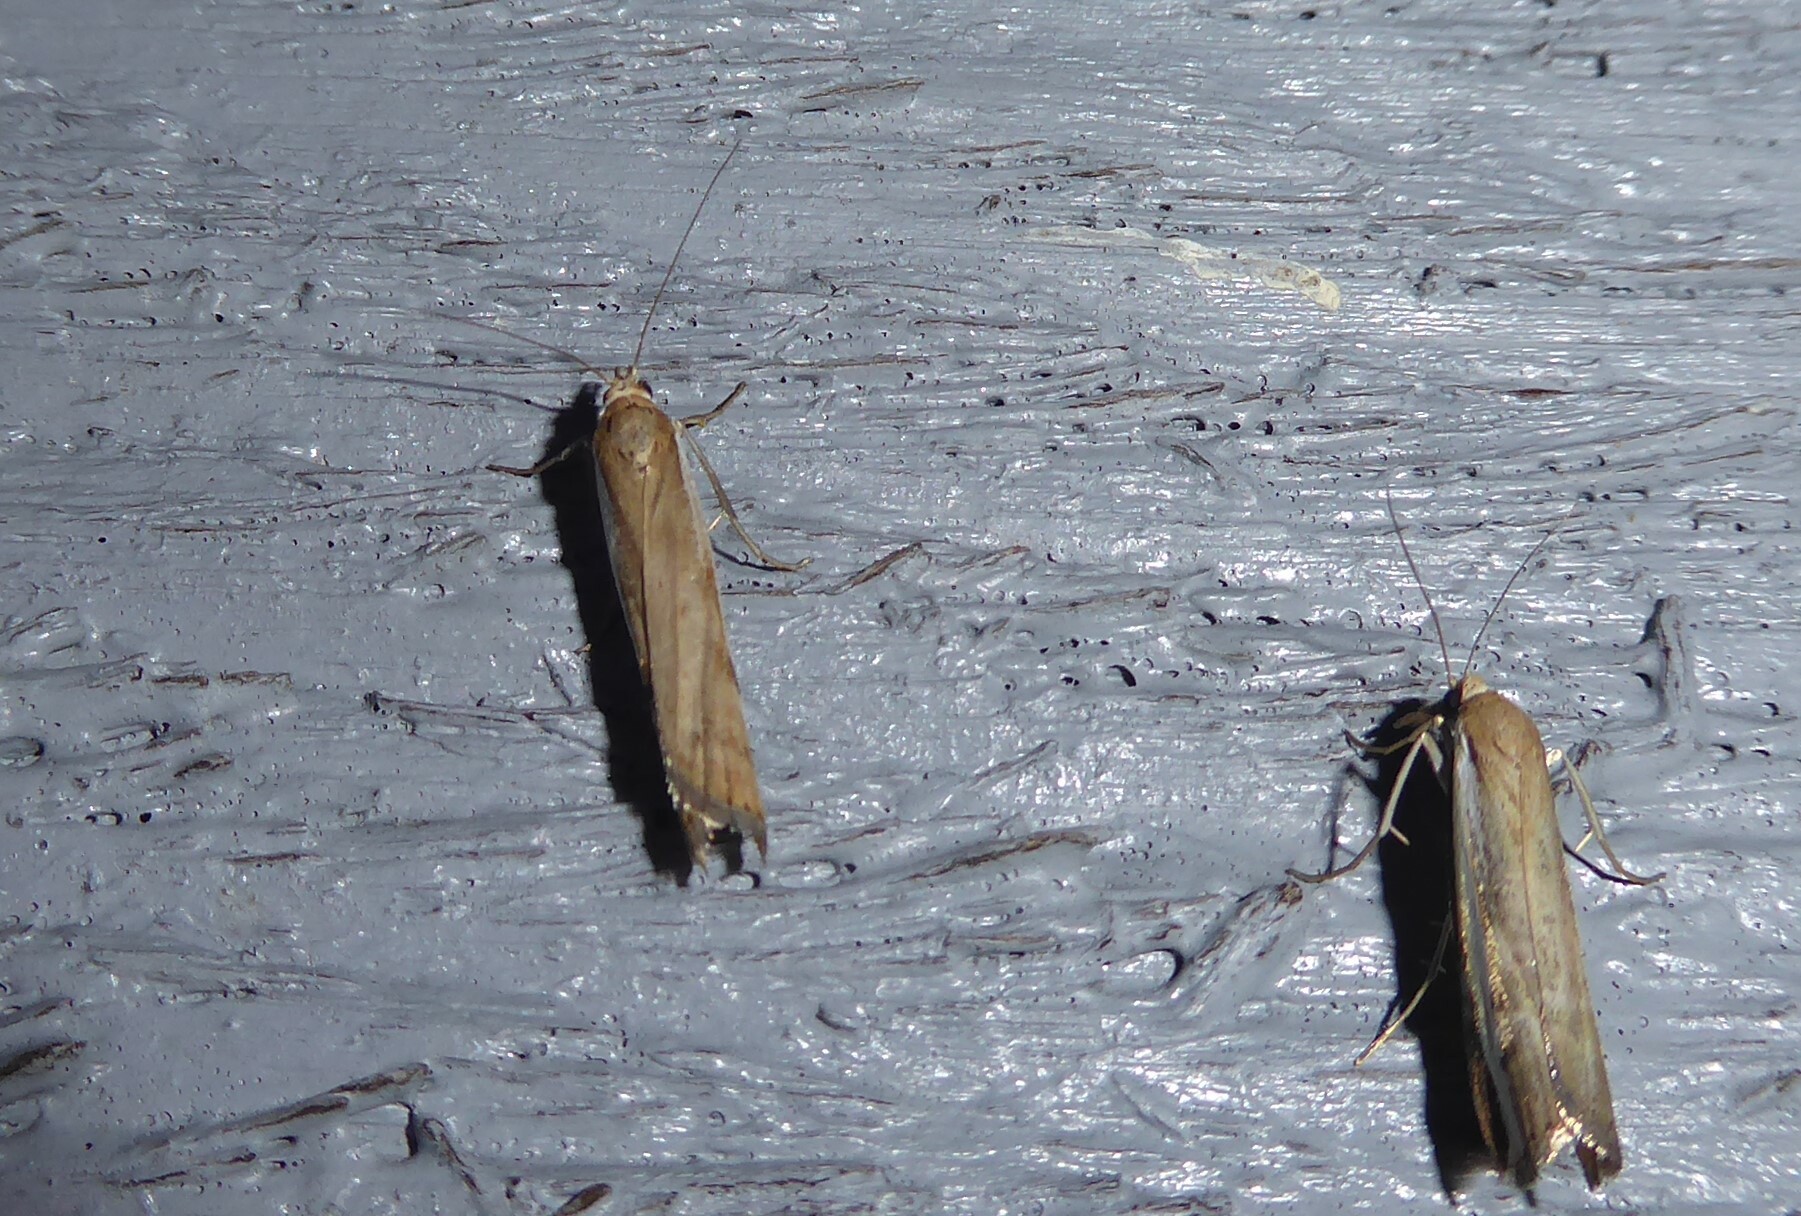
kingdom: Animalia
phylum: Arthropoda
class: Insecta
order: Lepidoptera
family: Crambidae
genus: Orocrambus
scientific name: Orocrambus flexuosellus
